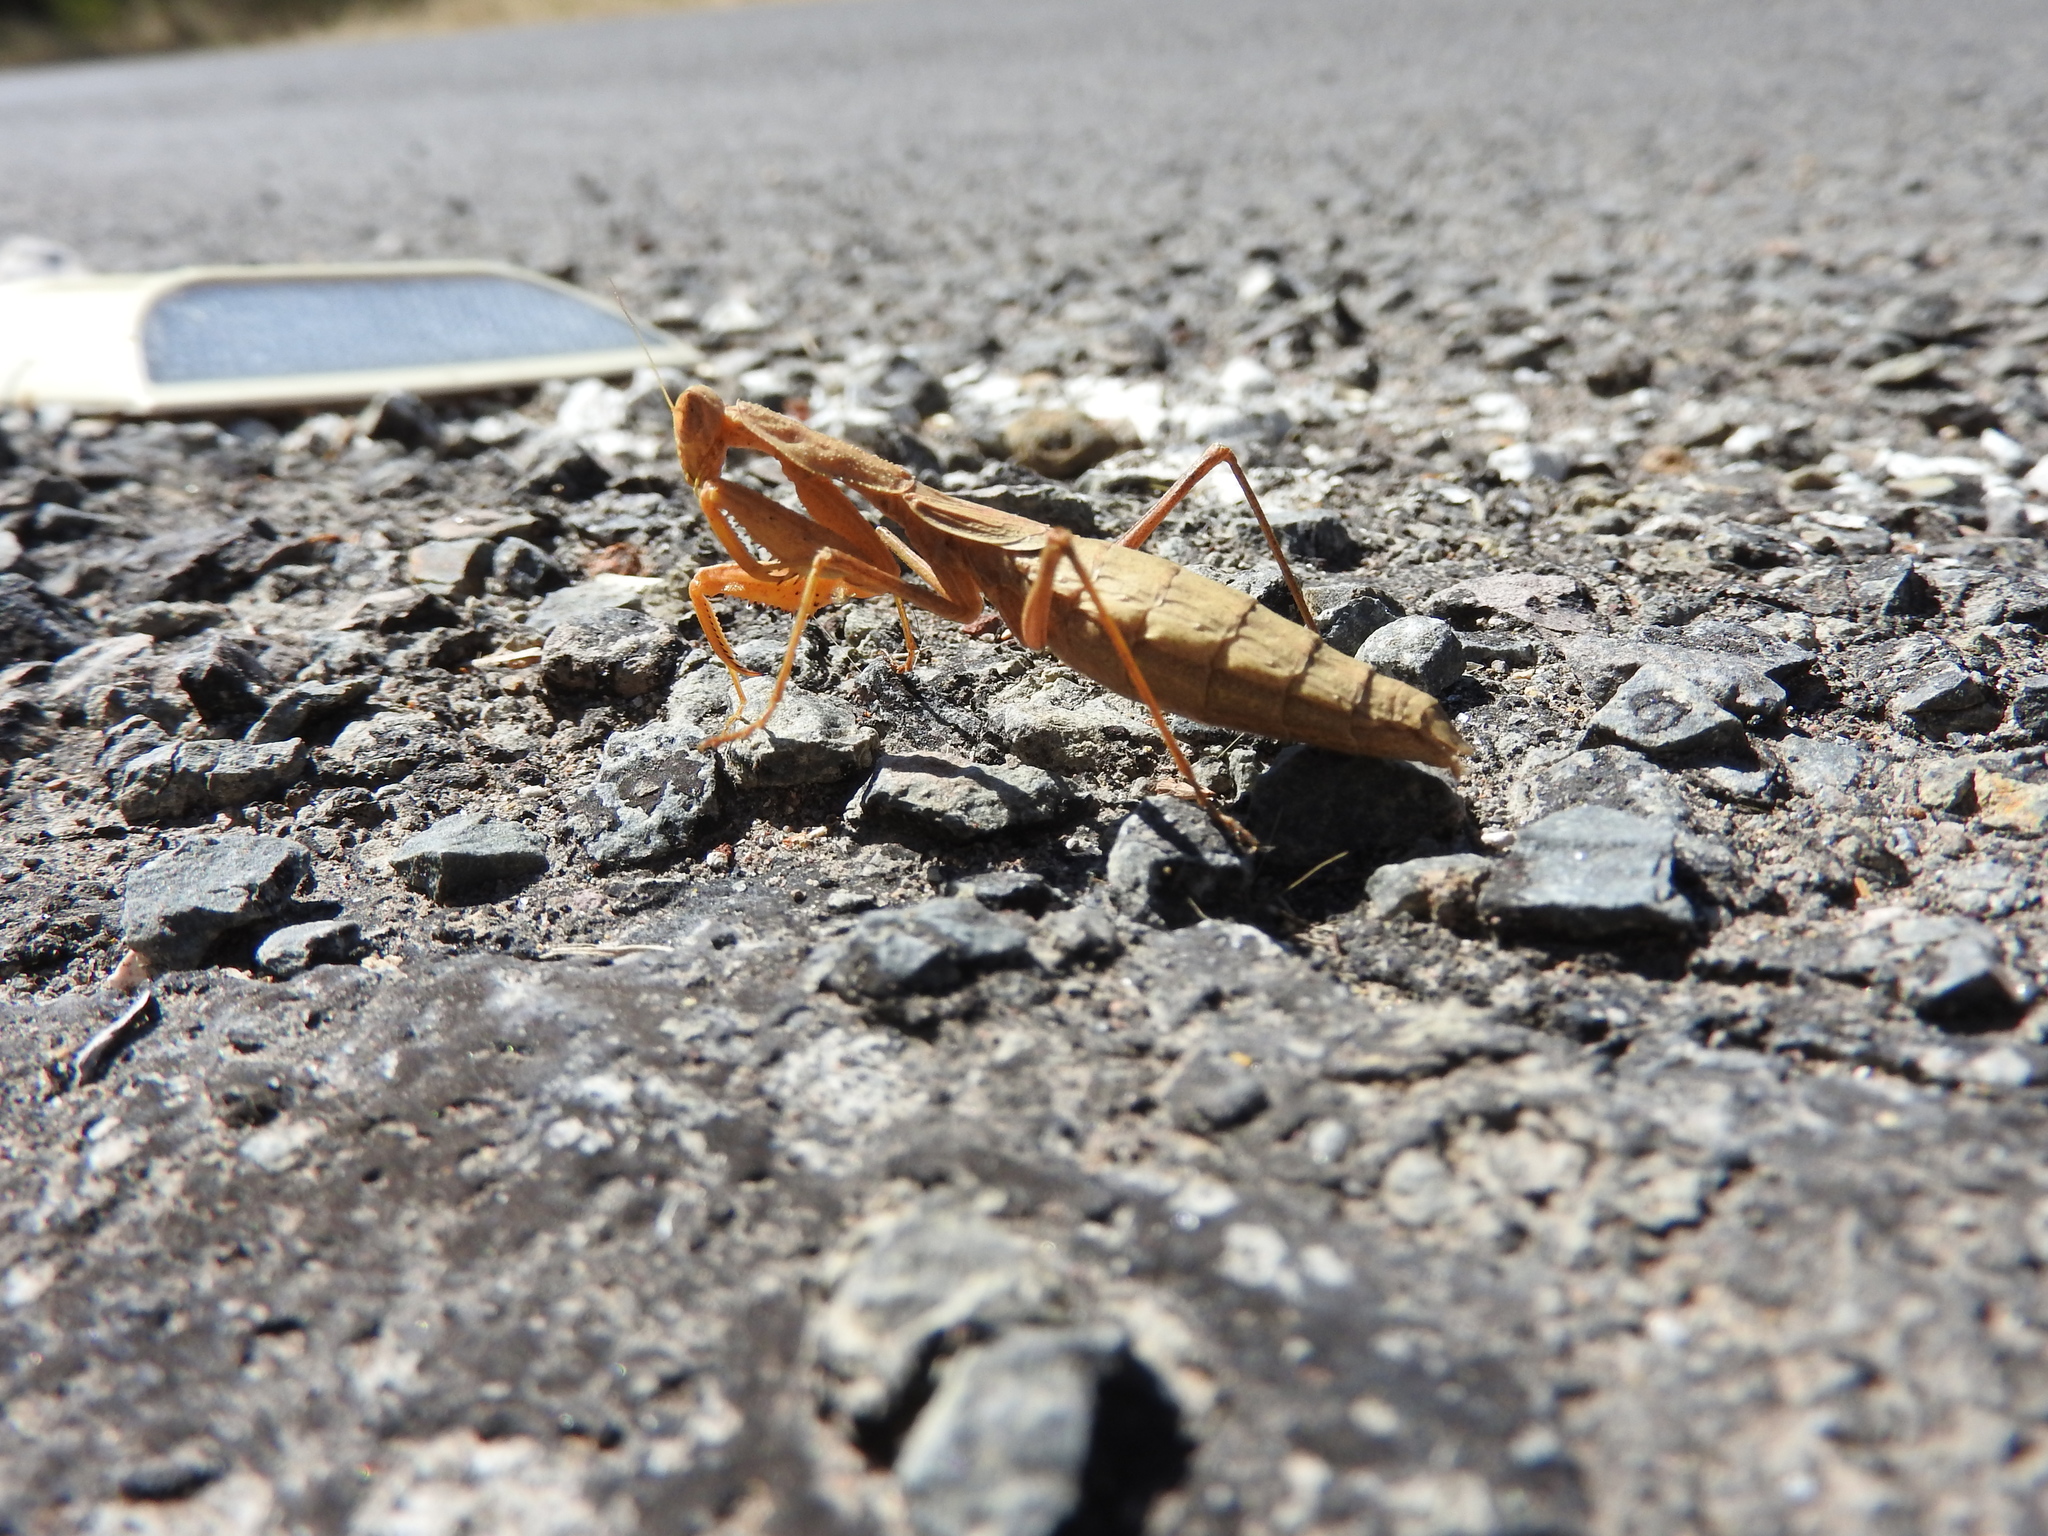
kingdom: Animalia
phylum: Arthropoda
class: Insecta
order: Mantodea
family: Amelidae
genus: Yersinia
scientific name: Yersinia mexicana
